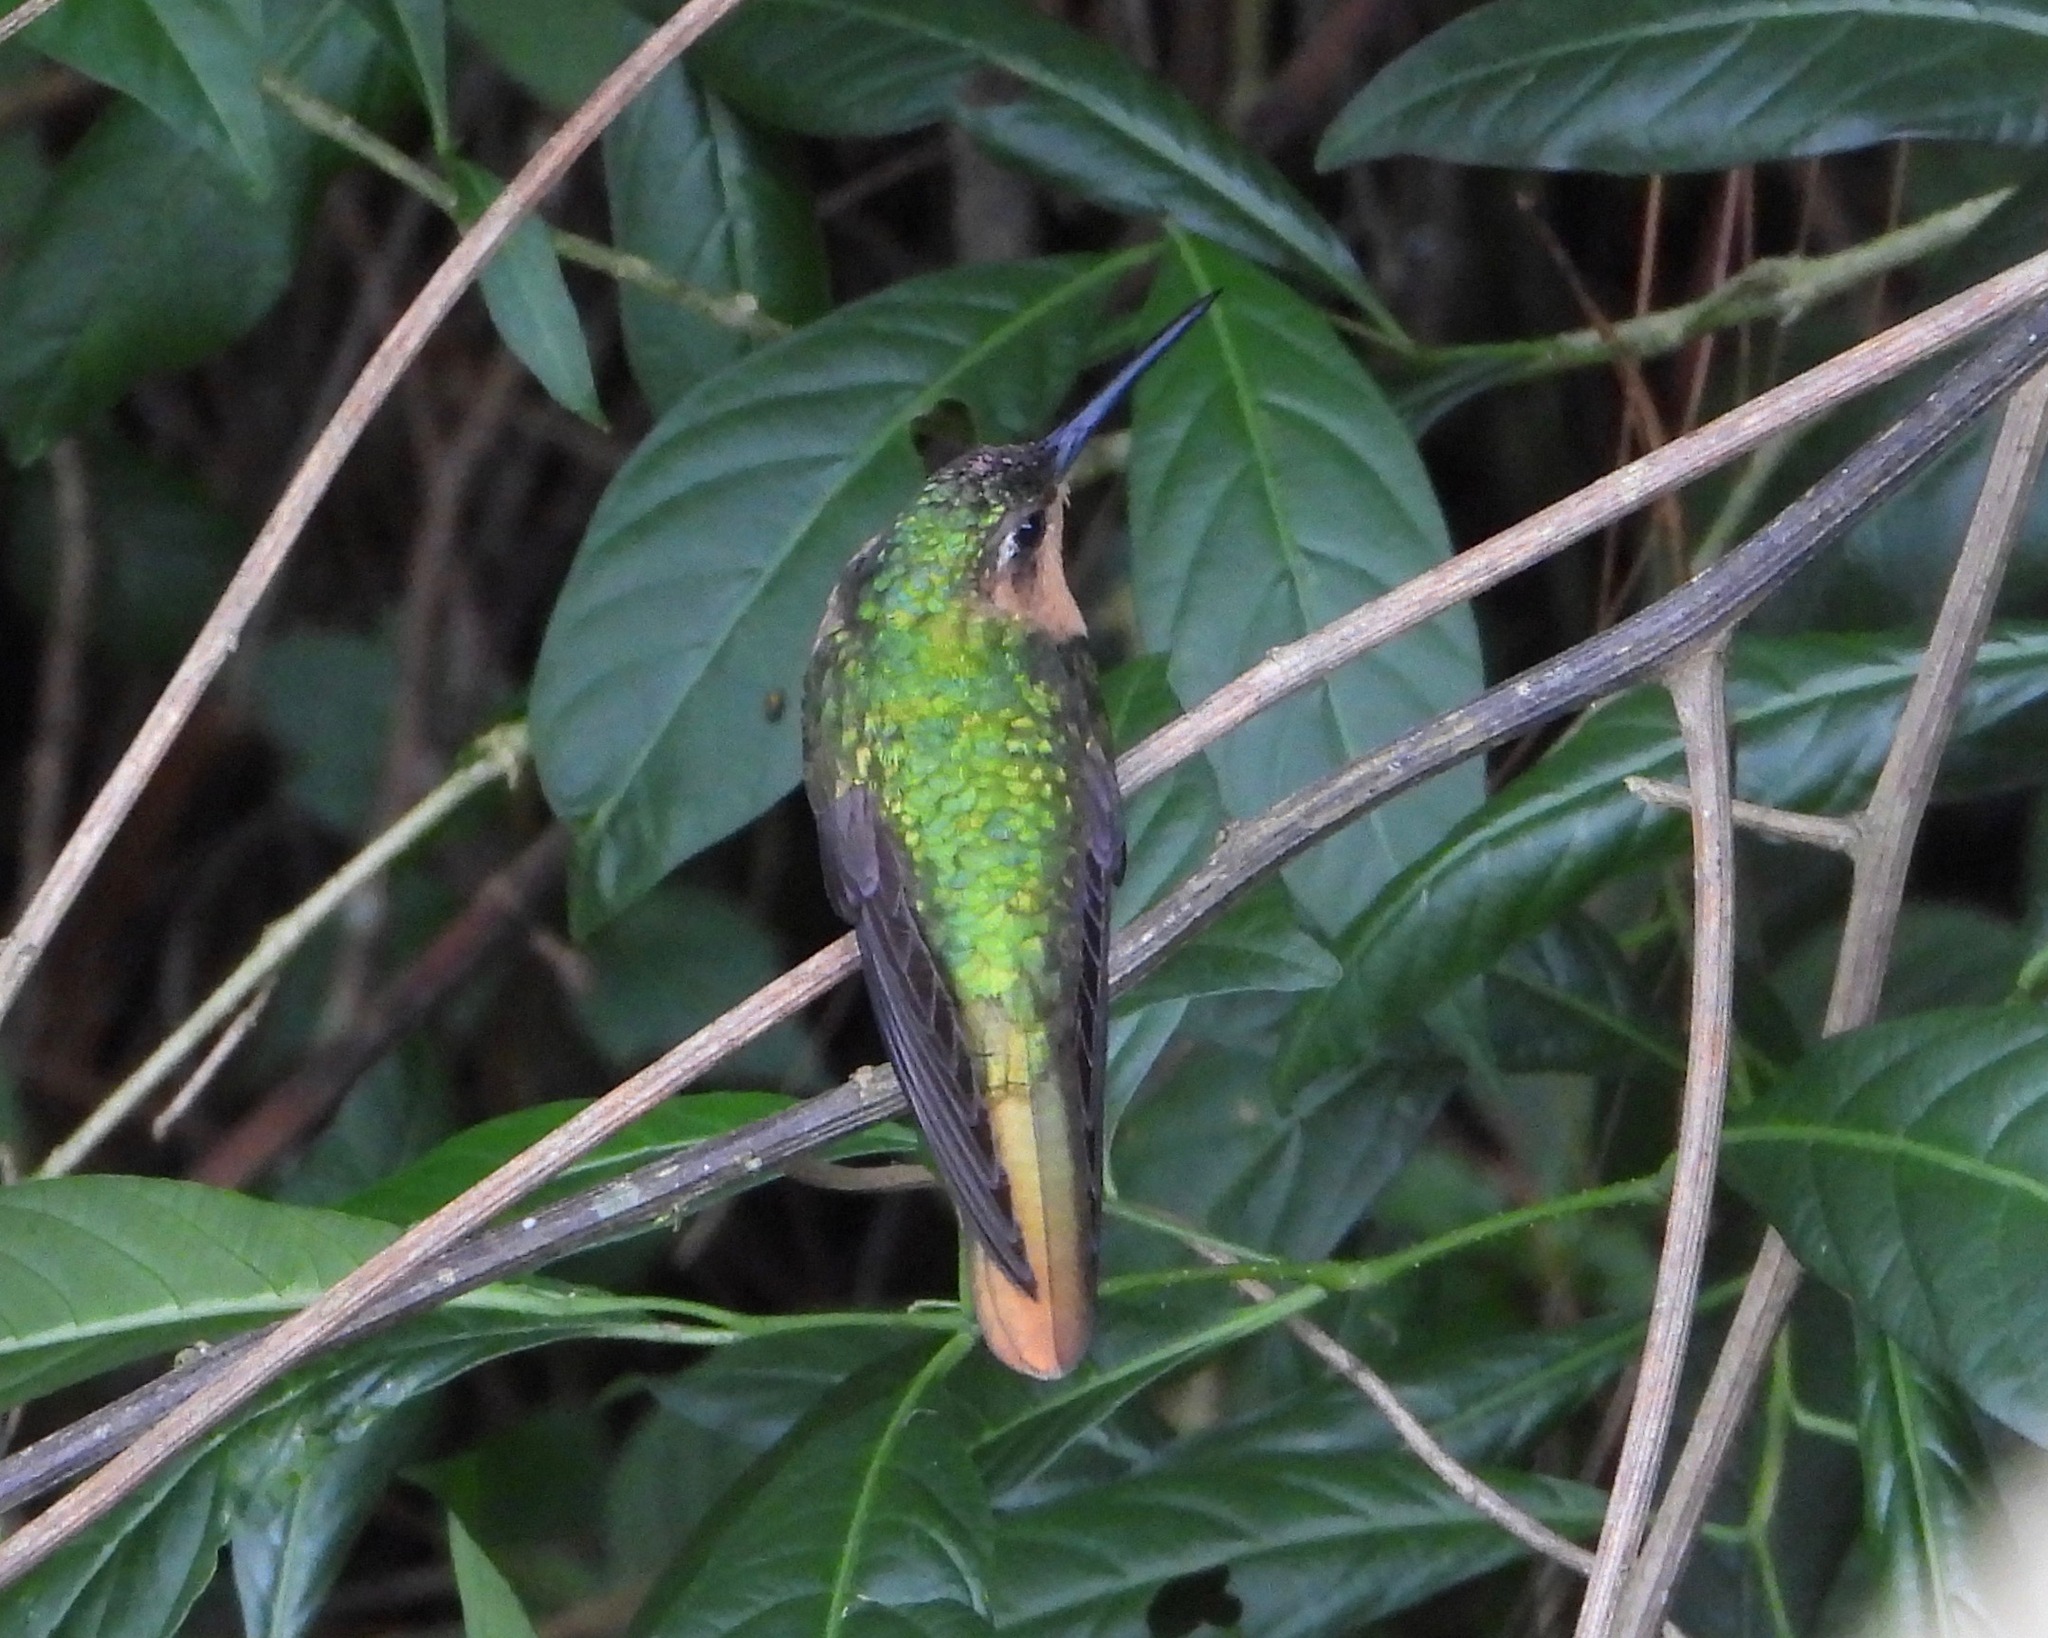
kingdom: Animalia
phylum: Chordata
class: Aves
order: Apodiformes
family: Trochilidae
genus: Pampa
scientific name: Pampa rufa
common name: Rufous sabrewing
